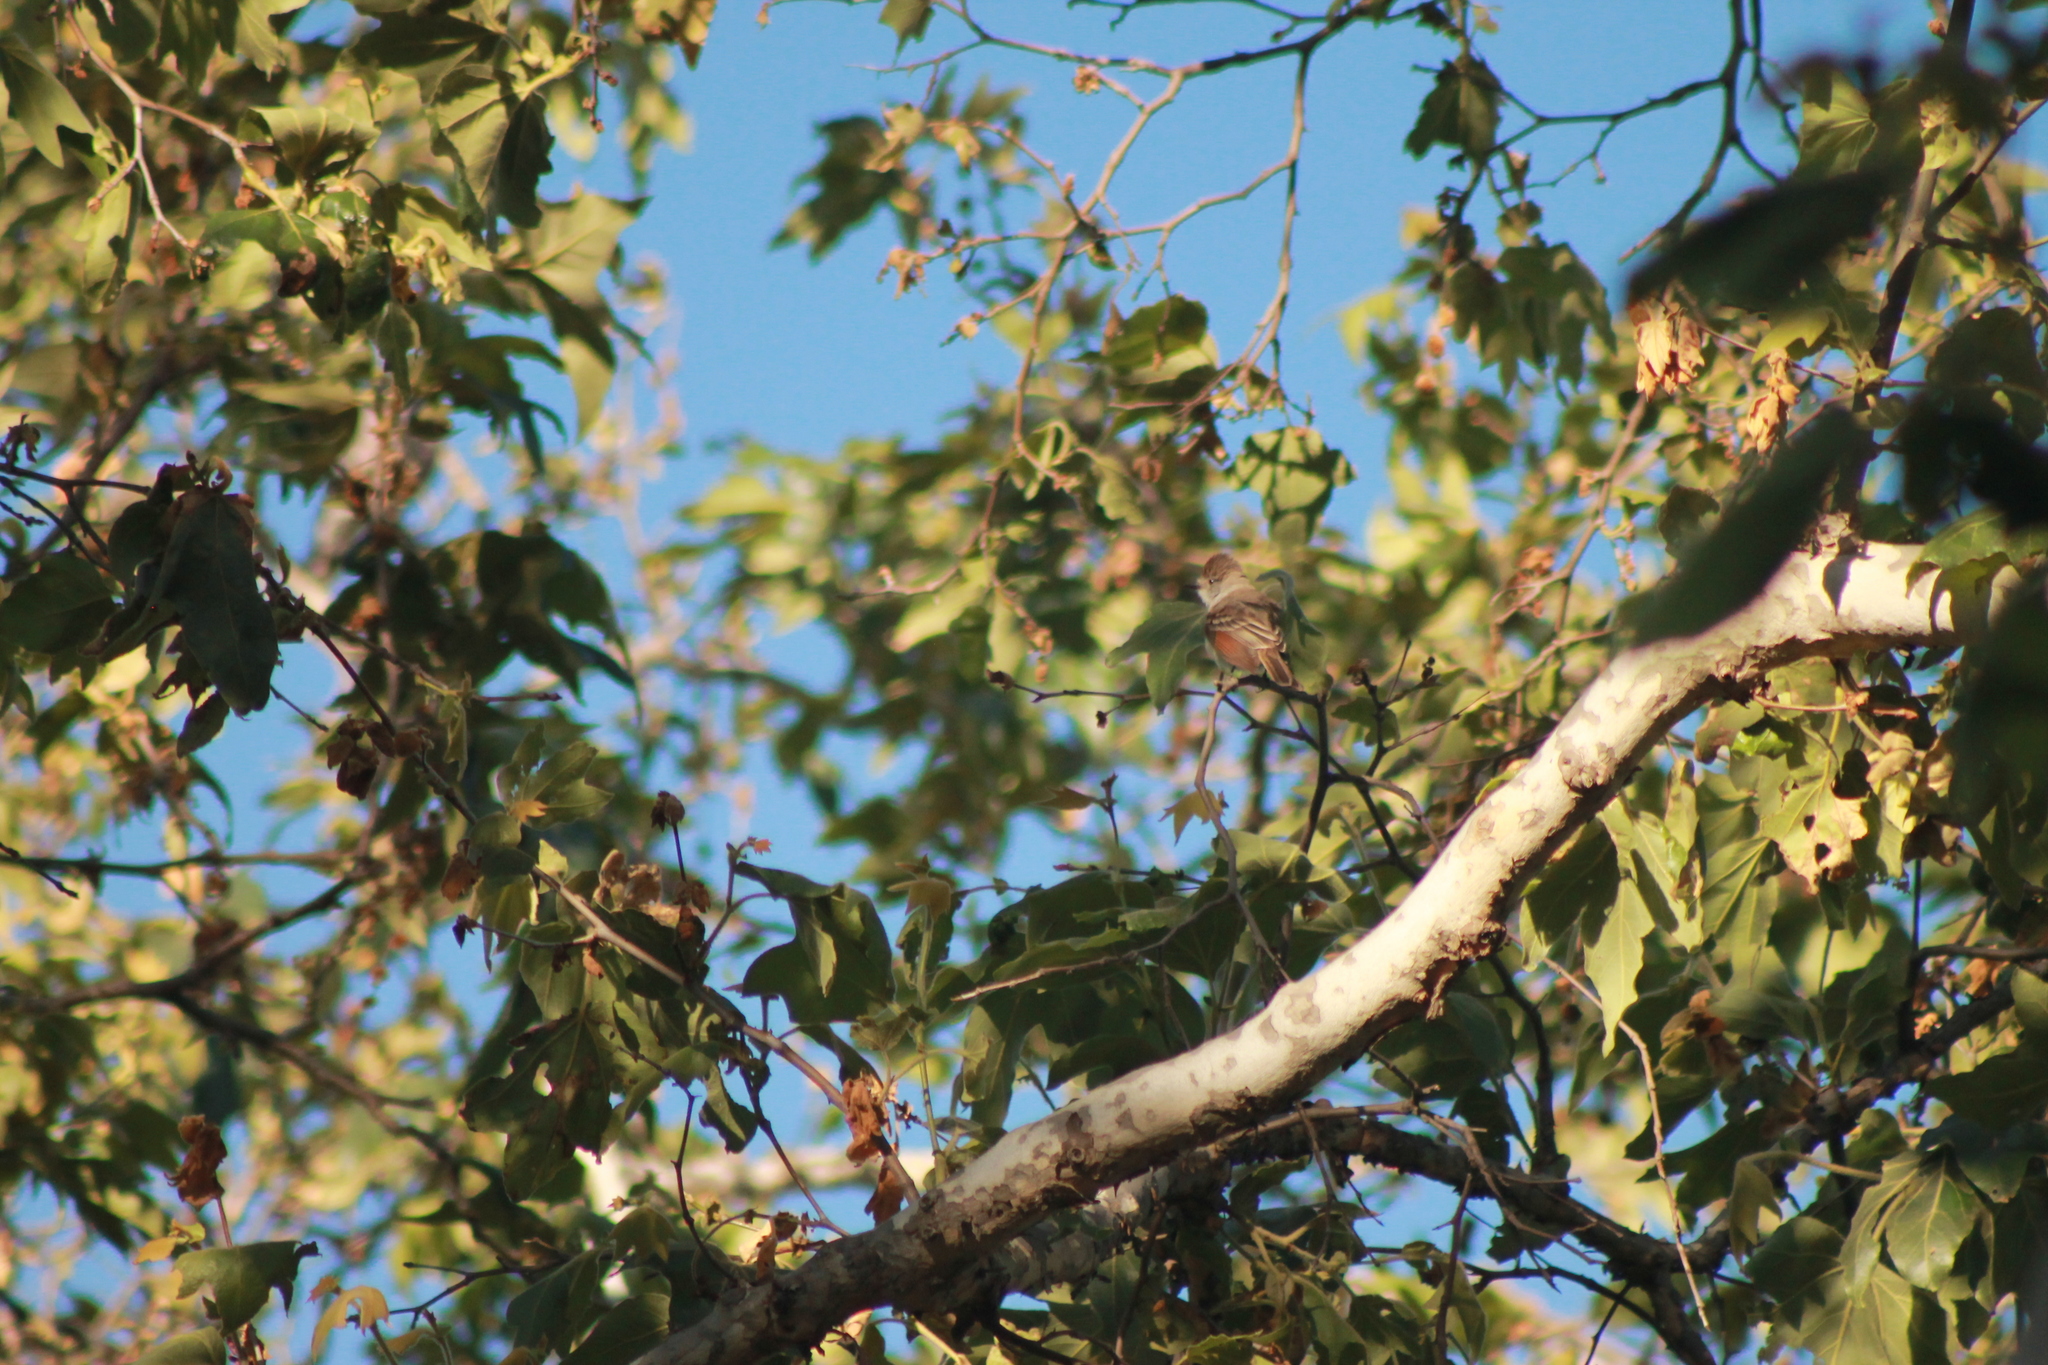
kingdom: Animalia
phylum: Chordata
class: Aves
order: Passeriformes
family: Tyrannidae
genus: Myiarchus
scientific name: Myiarchus cinerascens
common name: Ash-throated flycatcher
